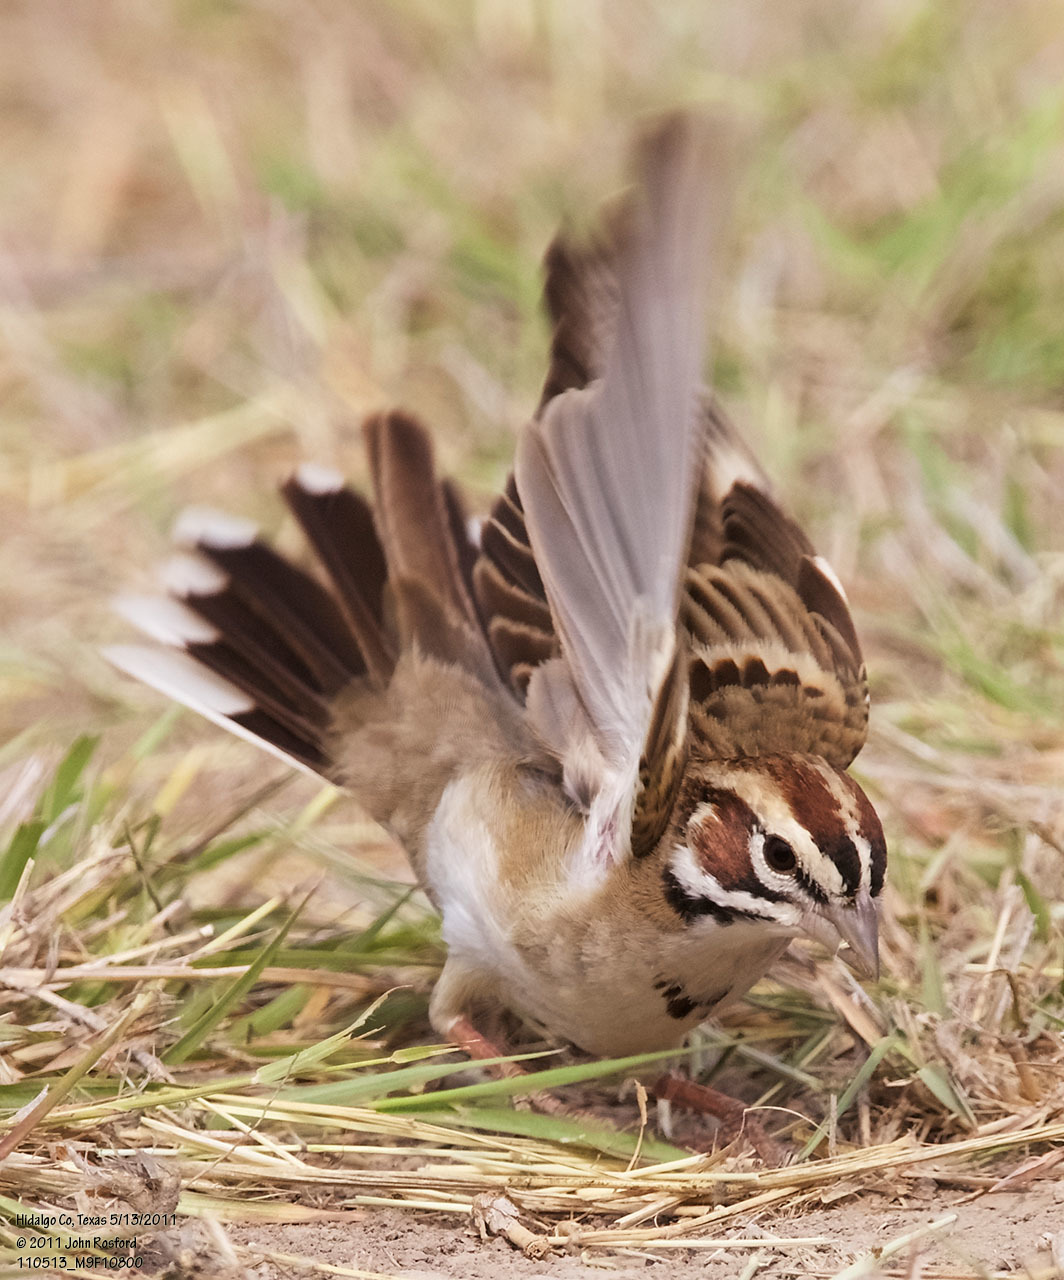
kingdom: Animalia
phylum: Chordata
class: Aves
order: Passeriformes
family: Passerellidae
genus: Chondestes
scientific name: Chondestes grammacus
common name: Lark sparrow
